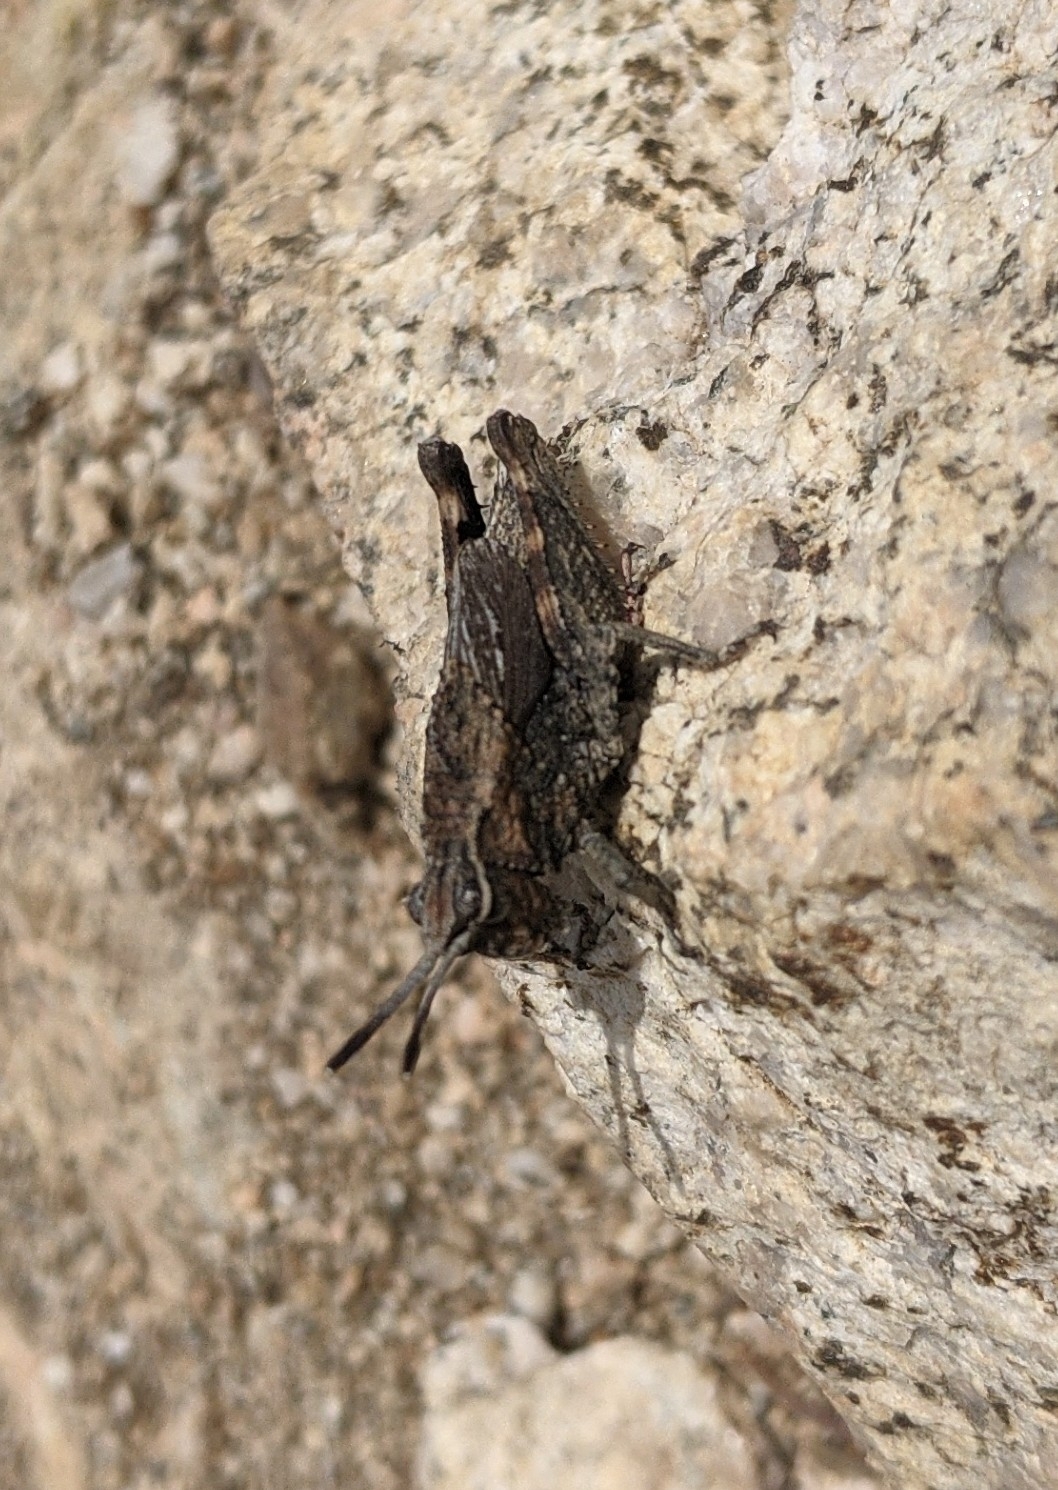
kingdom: Animalia
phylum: Arthropoda
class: Insecta
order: Orthoptera
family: Romaleidae
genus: Dracotettix
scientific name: Dracotettix monstrosus
